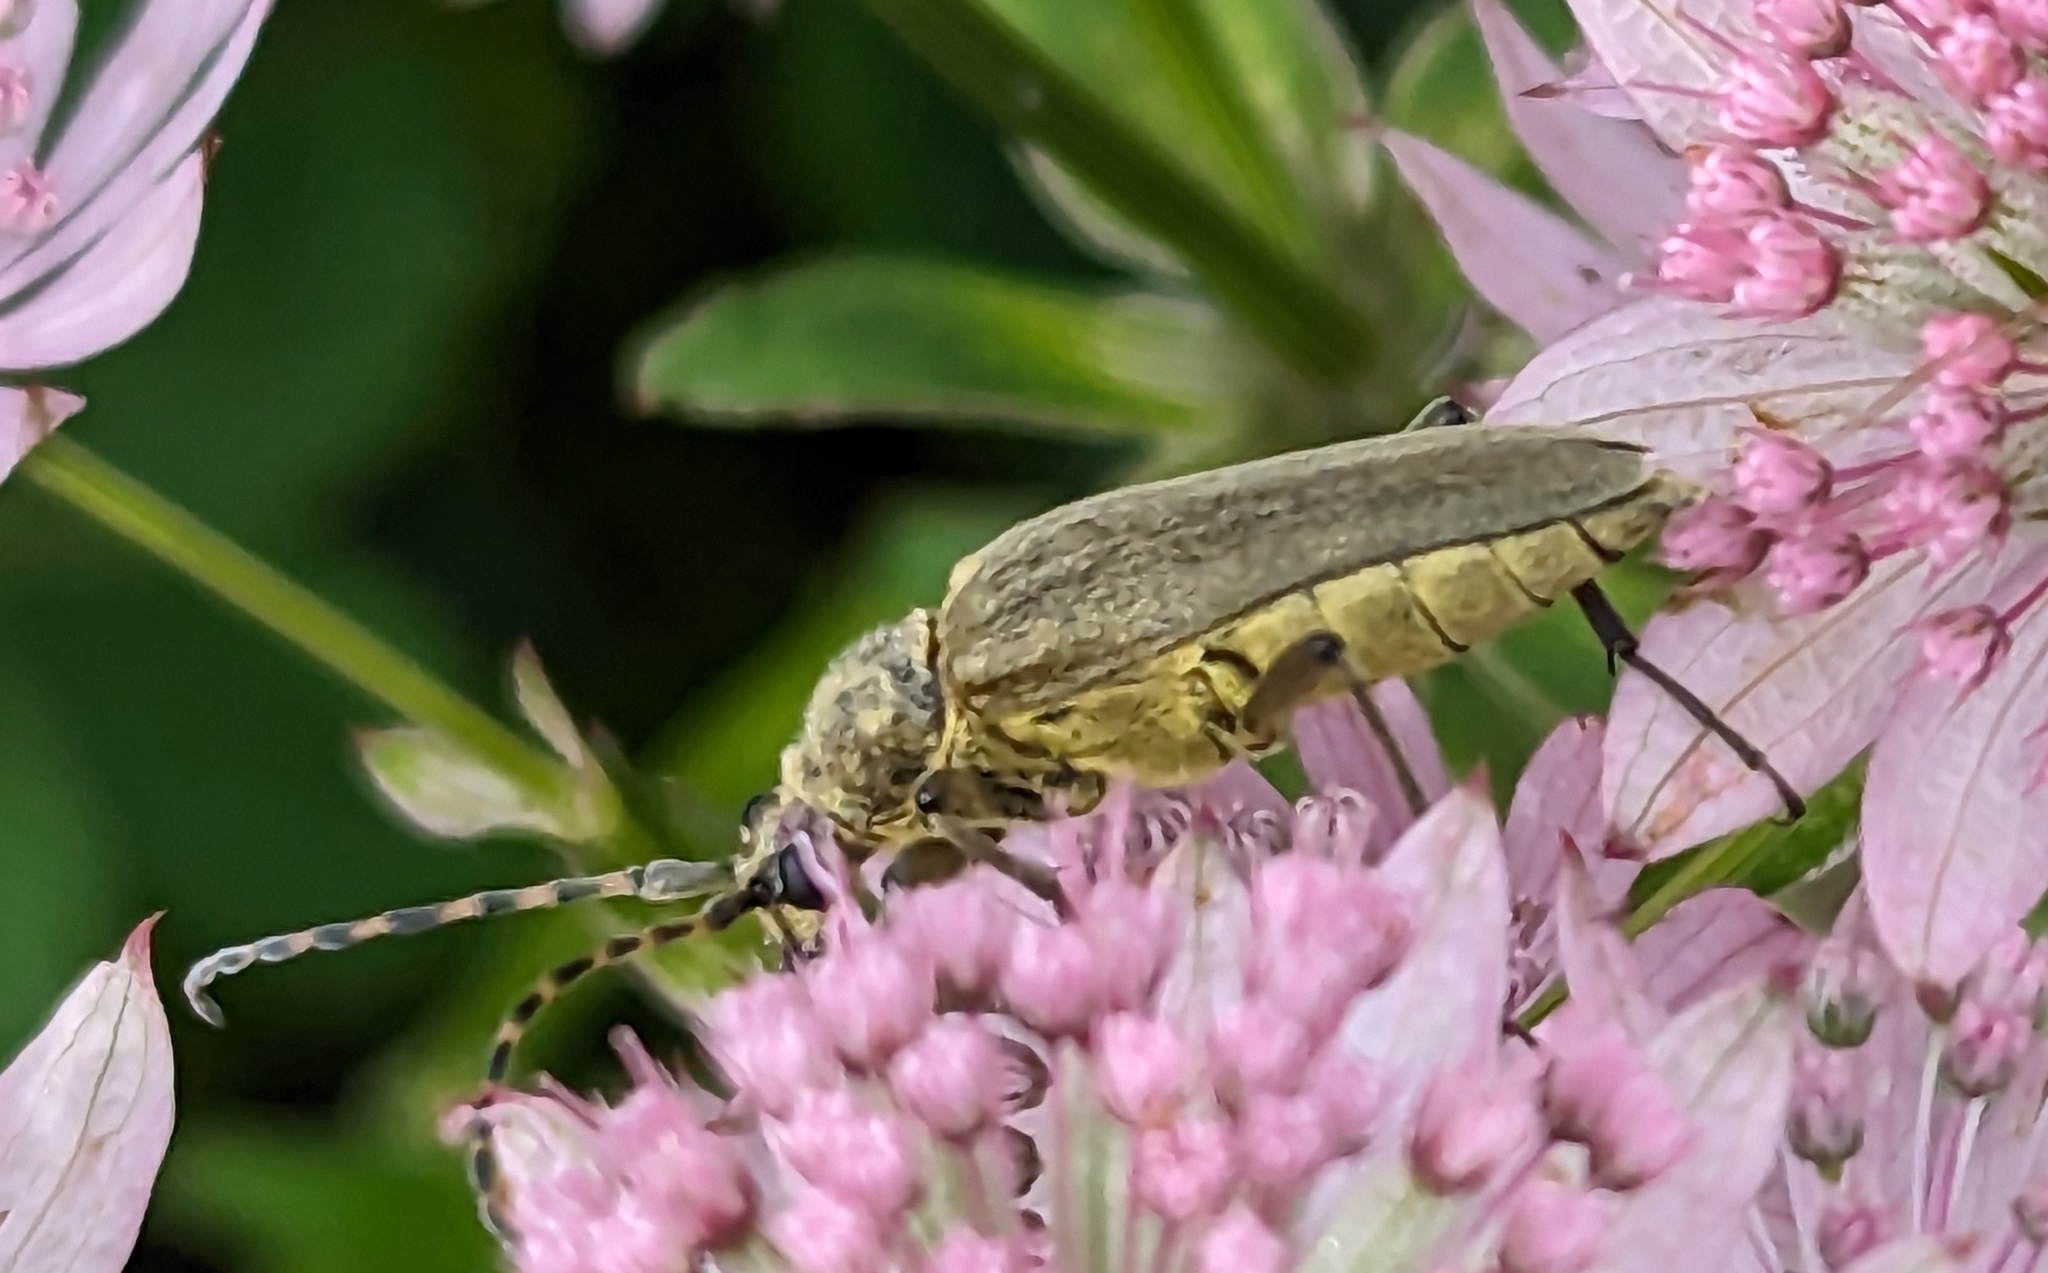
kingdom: Animalia
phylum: Arthropoda
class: Insecta
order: Coleoptera
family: Cerambycidae
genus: Lepturobosca
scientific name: Lepturobosca virens
